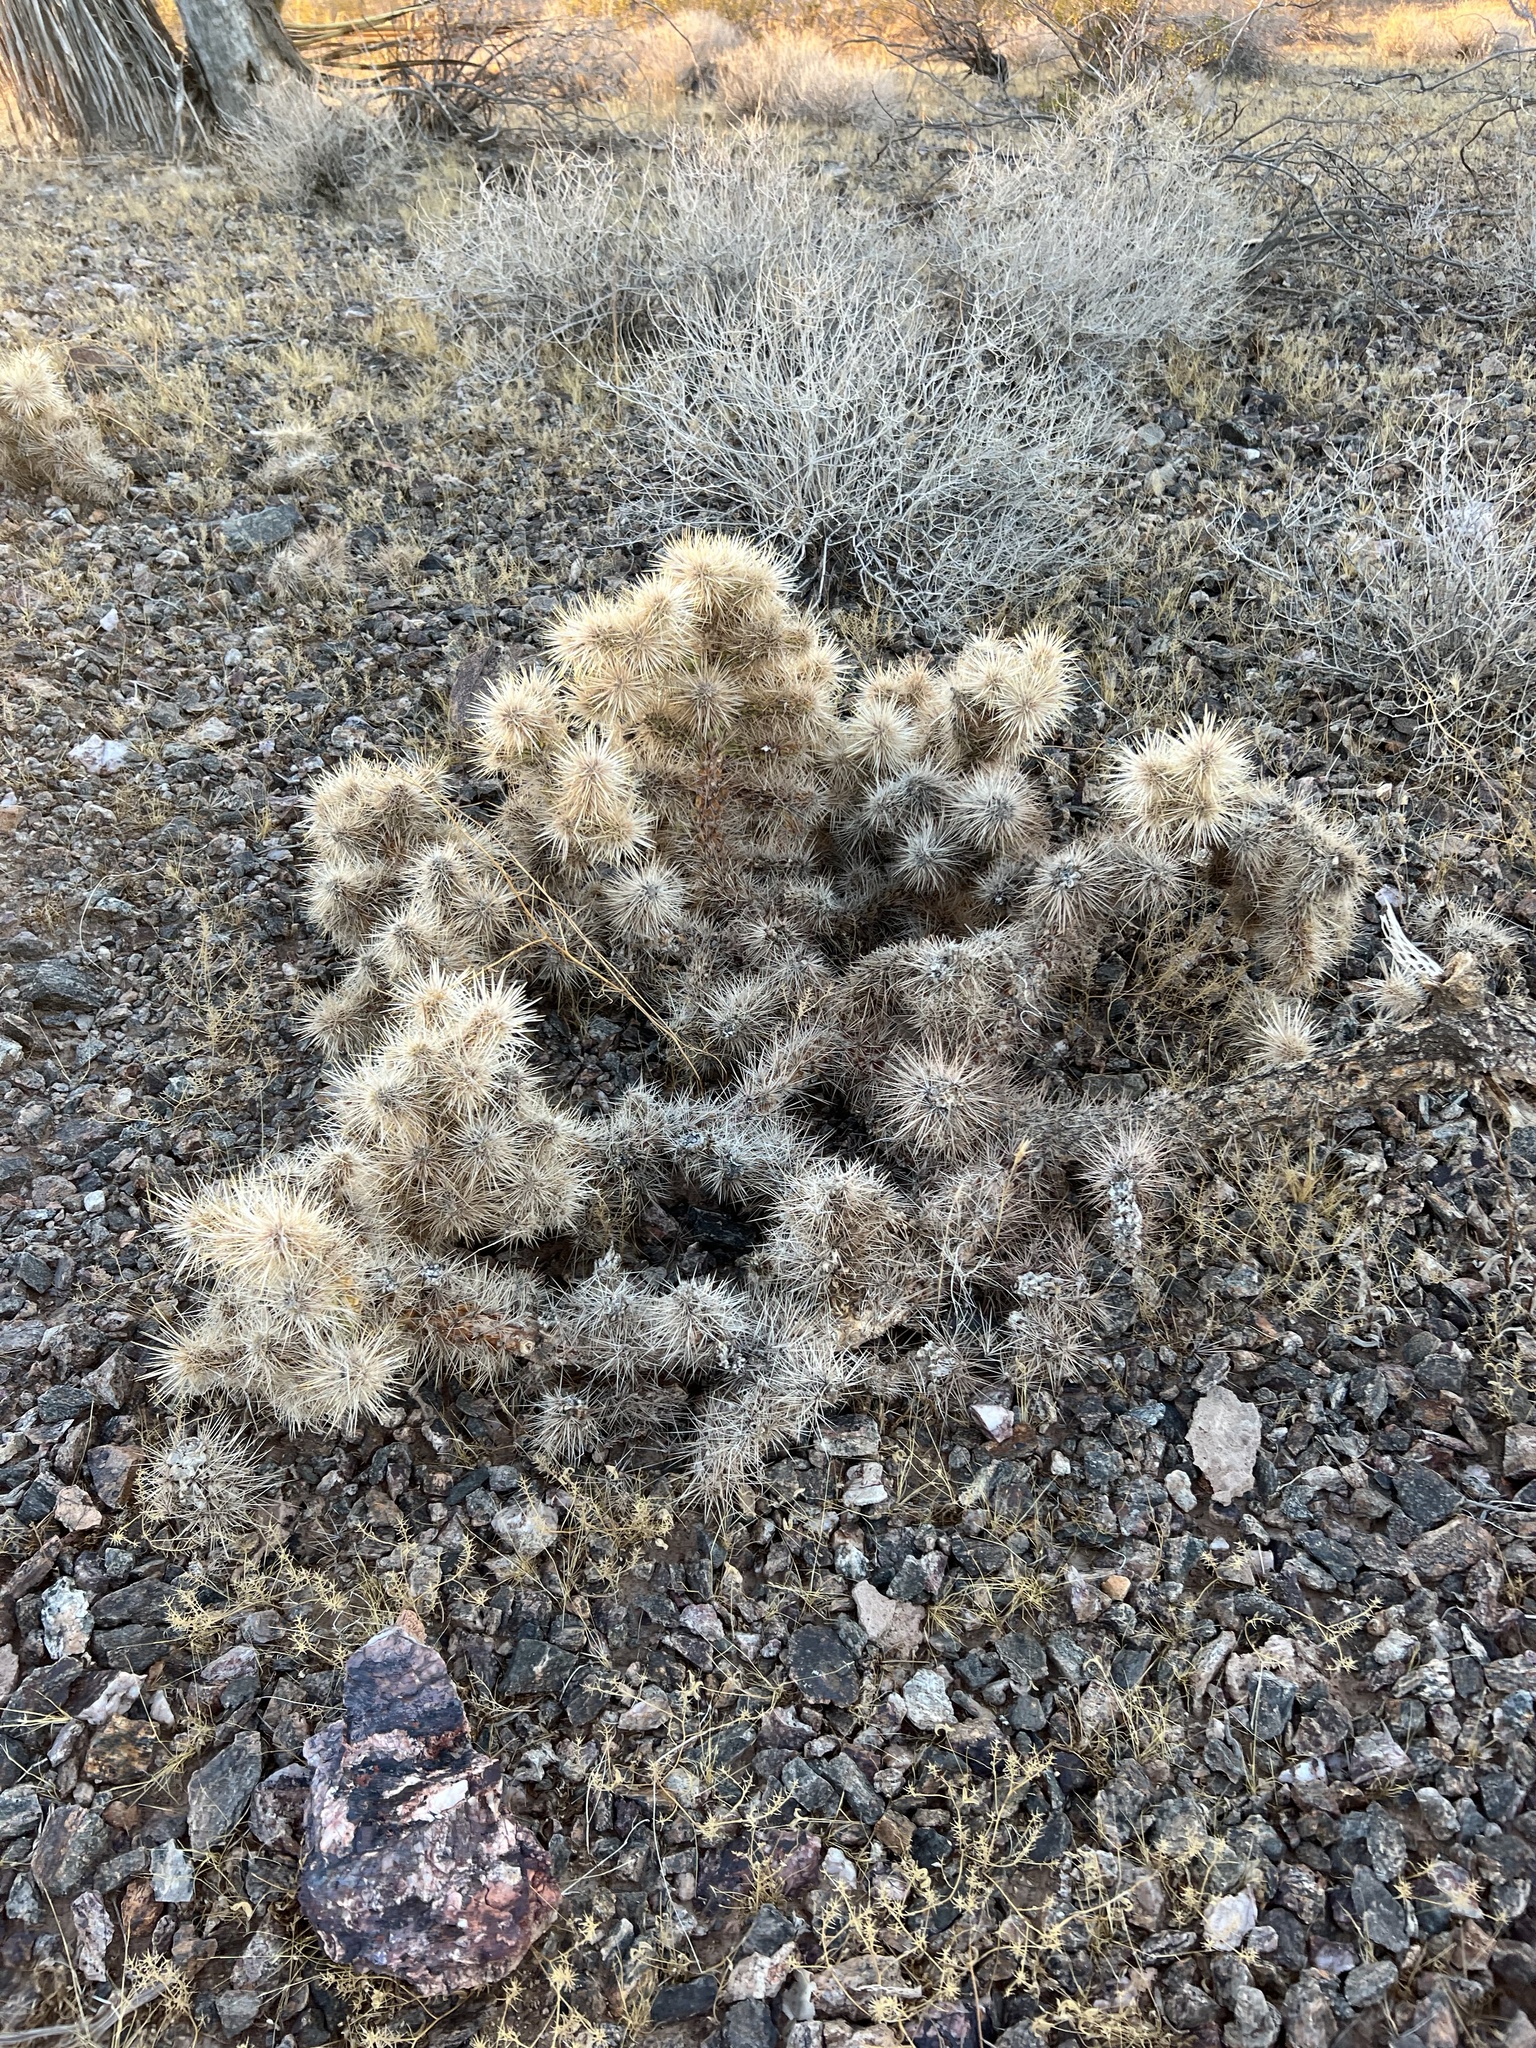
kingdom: Plantae
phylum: Tracheophyta
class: Magnoliopsida
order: Caryophyllales
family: Cactaceae
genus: Cylindropuntia
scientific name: Cylindropuntia echinocarpa
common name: Ground cholla
